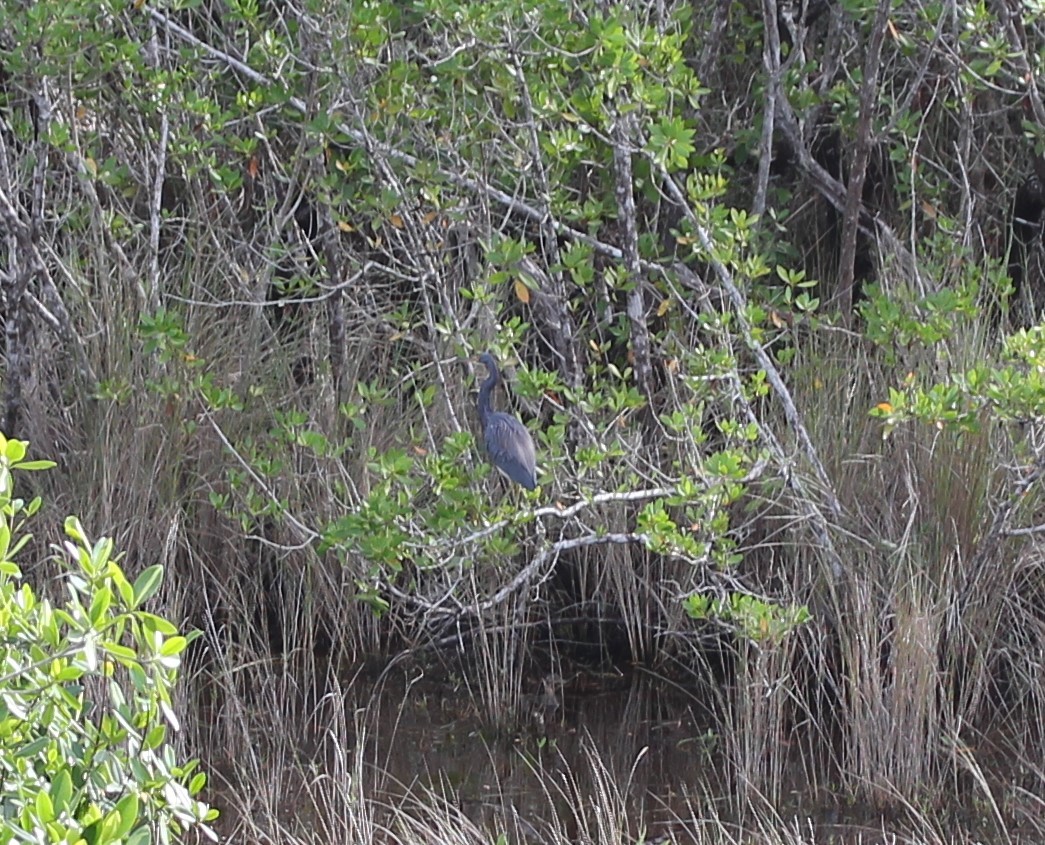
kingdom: Animalia
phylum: Chordata
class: Aves
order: Pelecaniformes
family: Ardeidae
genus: Egretta
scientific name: Egretta tricolor
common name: Tricolored heron
